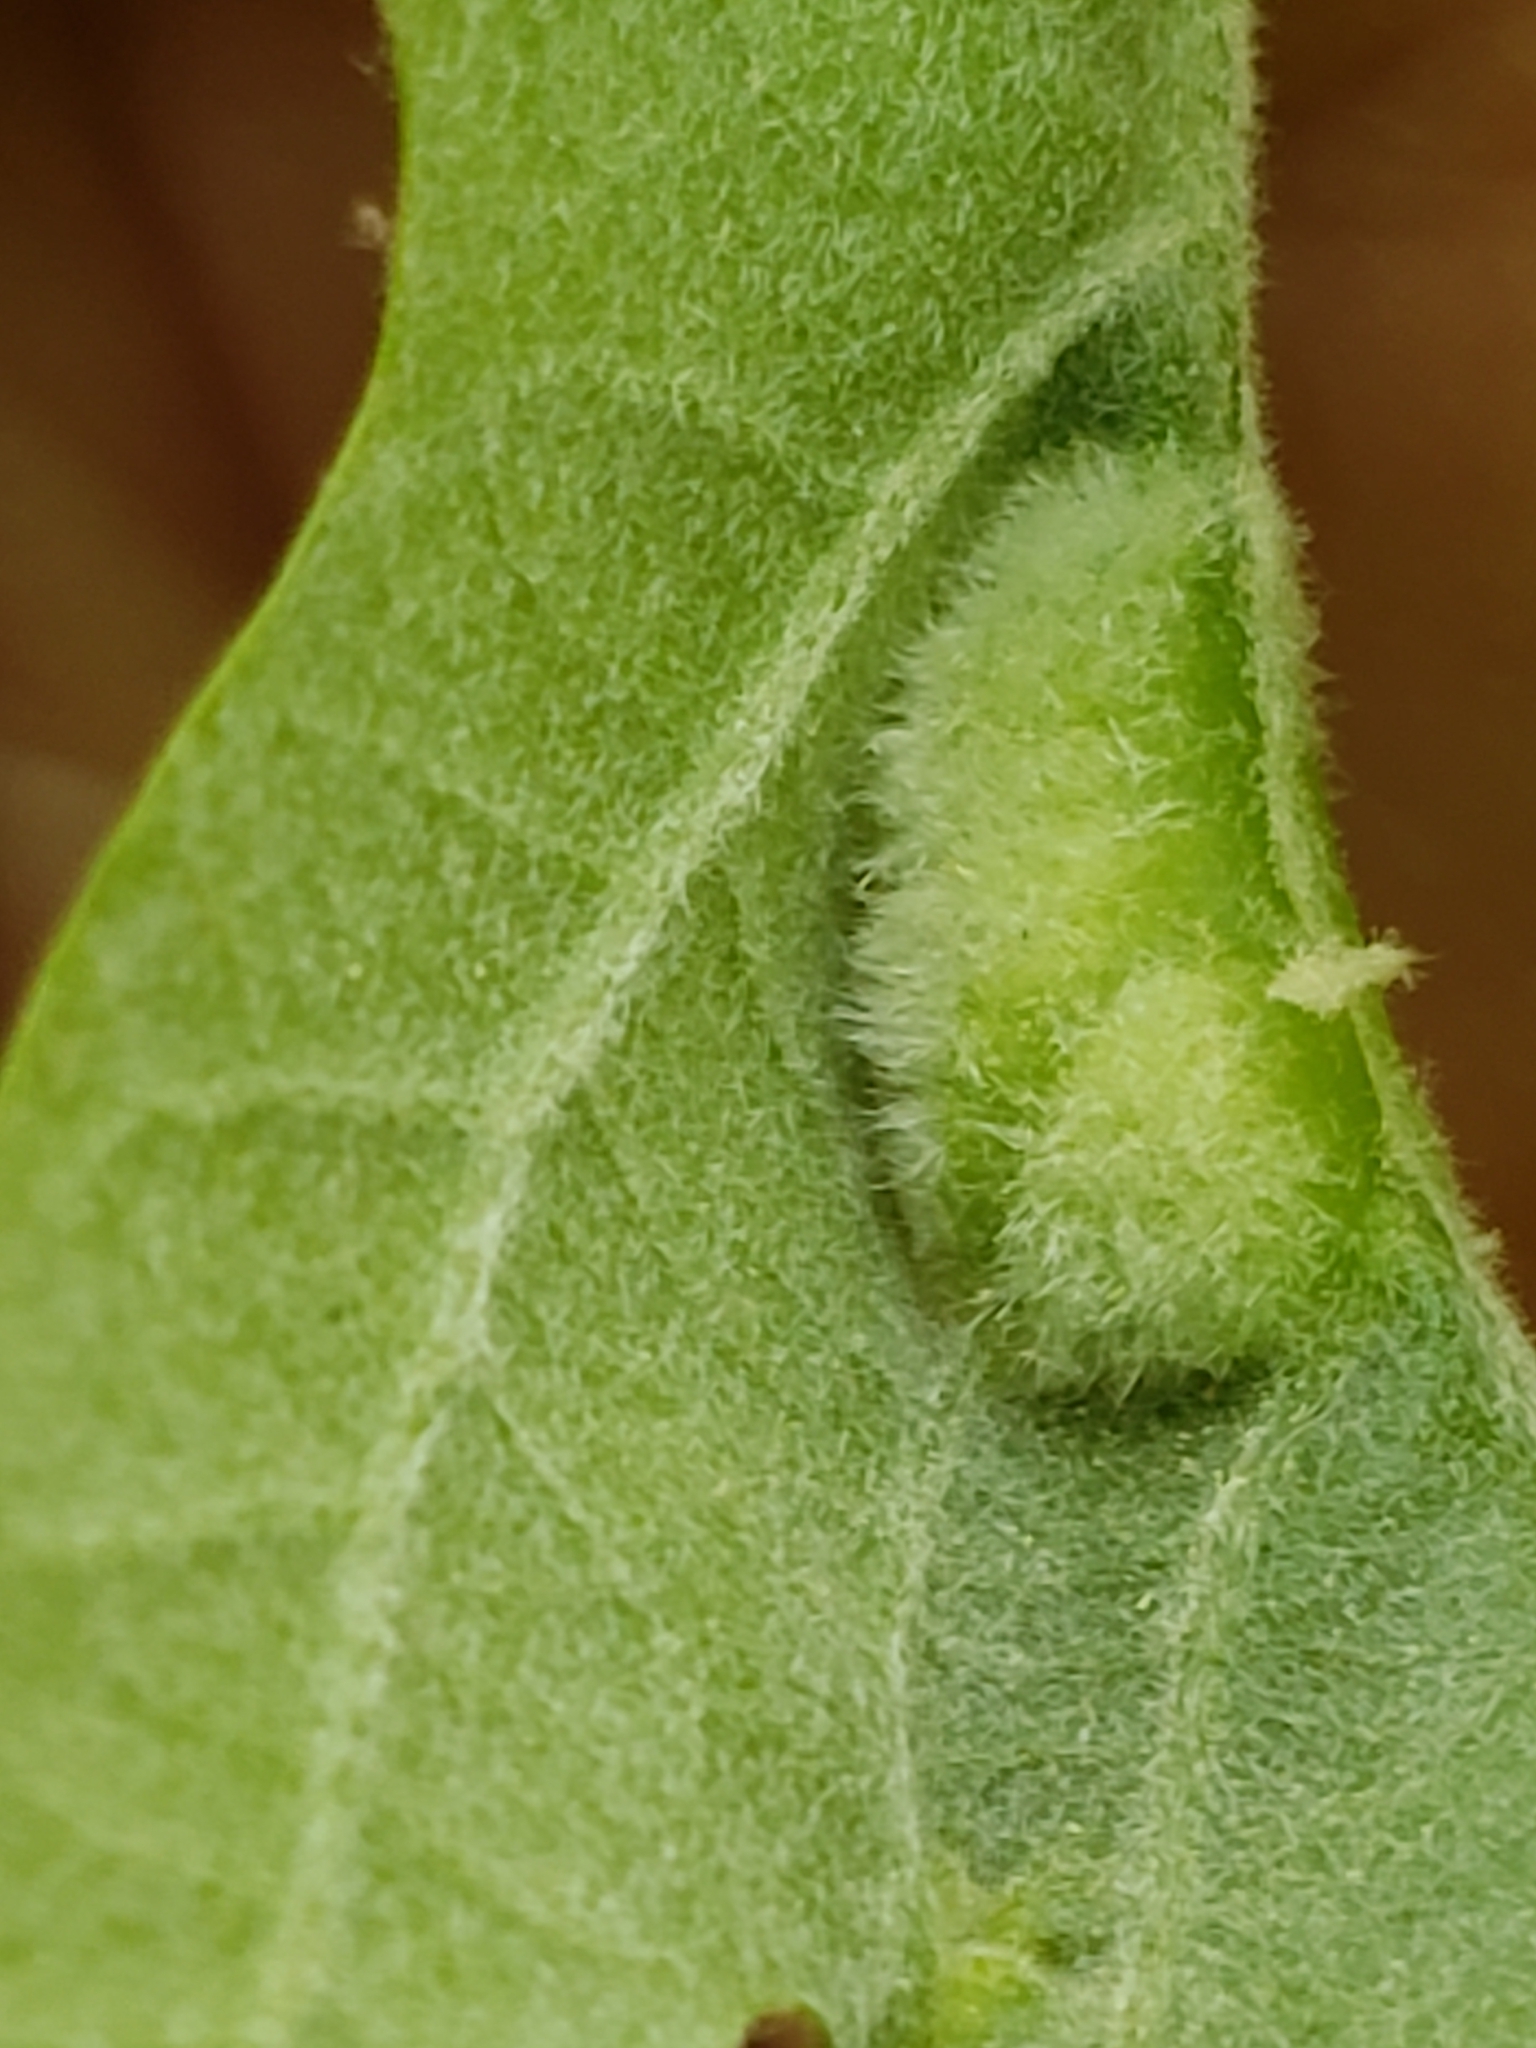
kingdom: Animalia
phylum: Arthropoda
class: Insecta
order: Diptera
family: Cecidomyiidae
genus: Macrodiplosis
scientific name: Macrodiplosis niveipila
